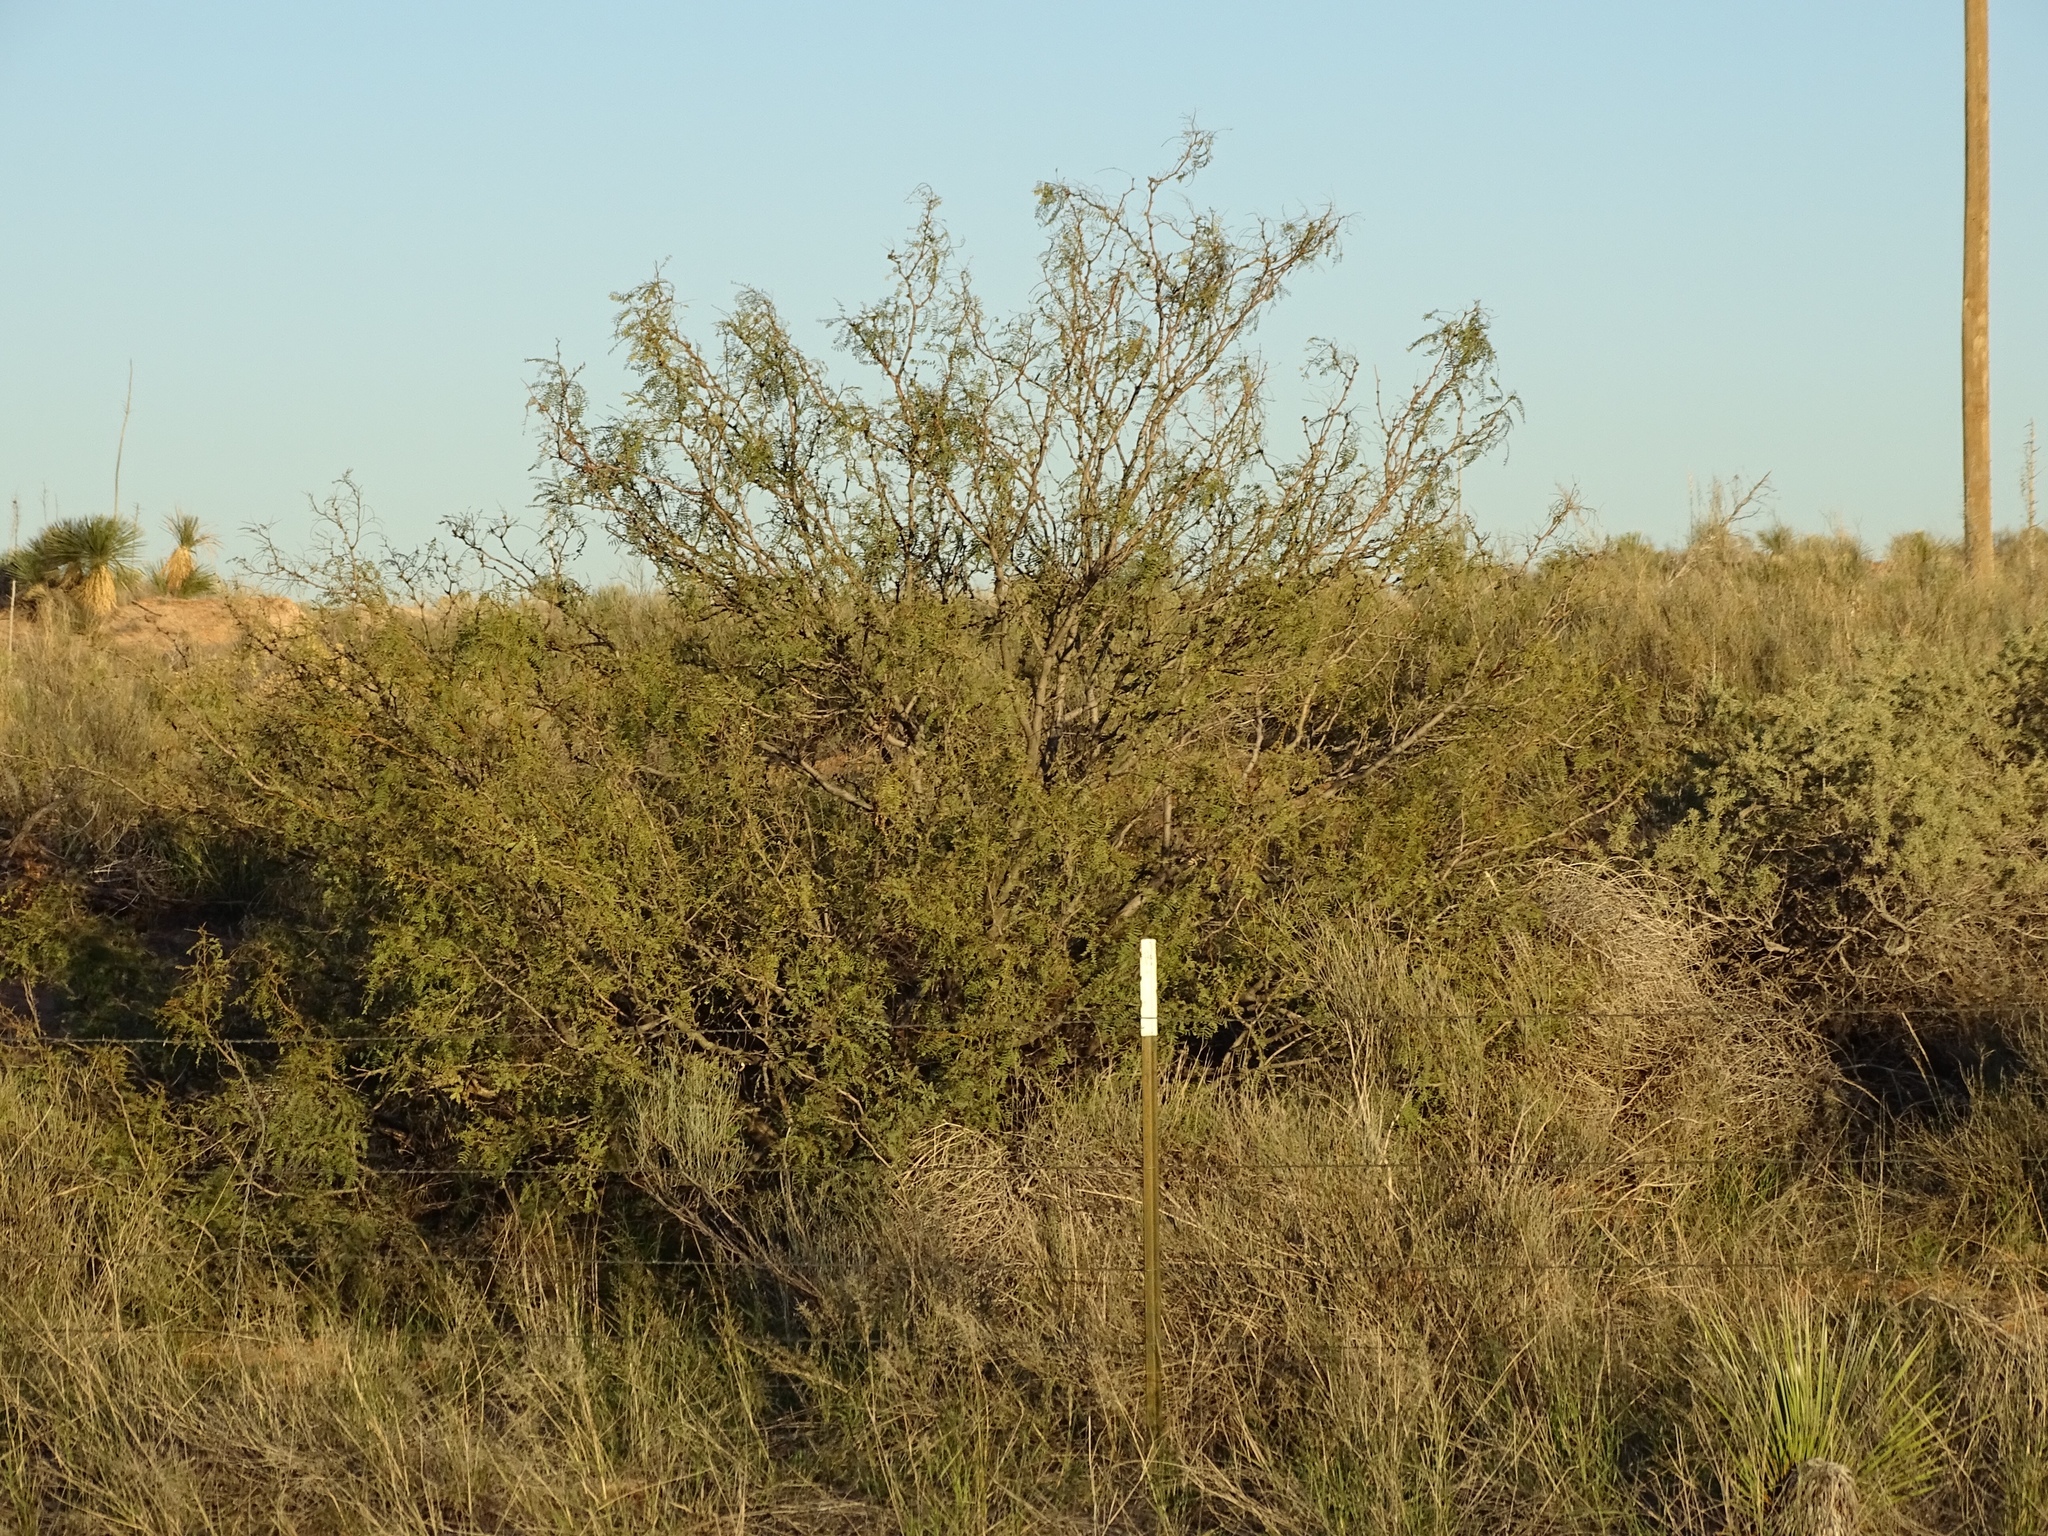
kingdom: Plantae
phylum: Tracheophyta
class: Magnoliopsida
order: Fabales
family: Fabaceae
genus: Prosopis
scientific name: Prosopis glandulosa
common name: Honey mesquite
